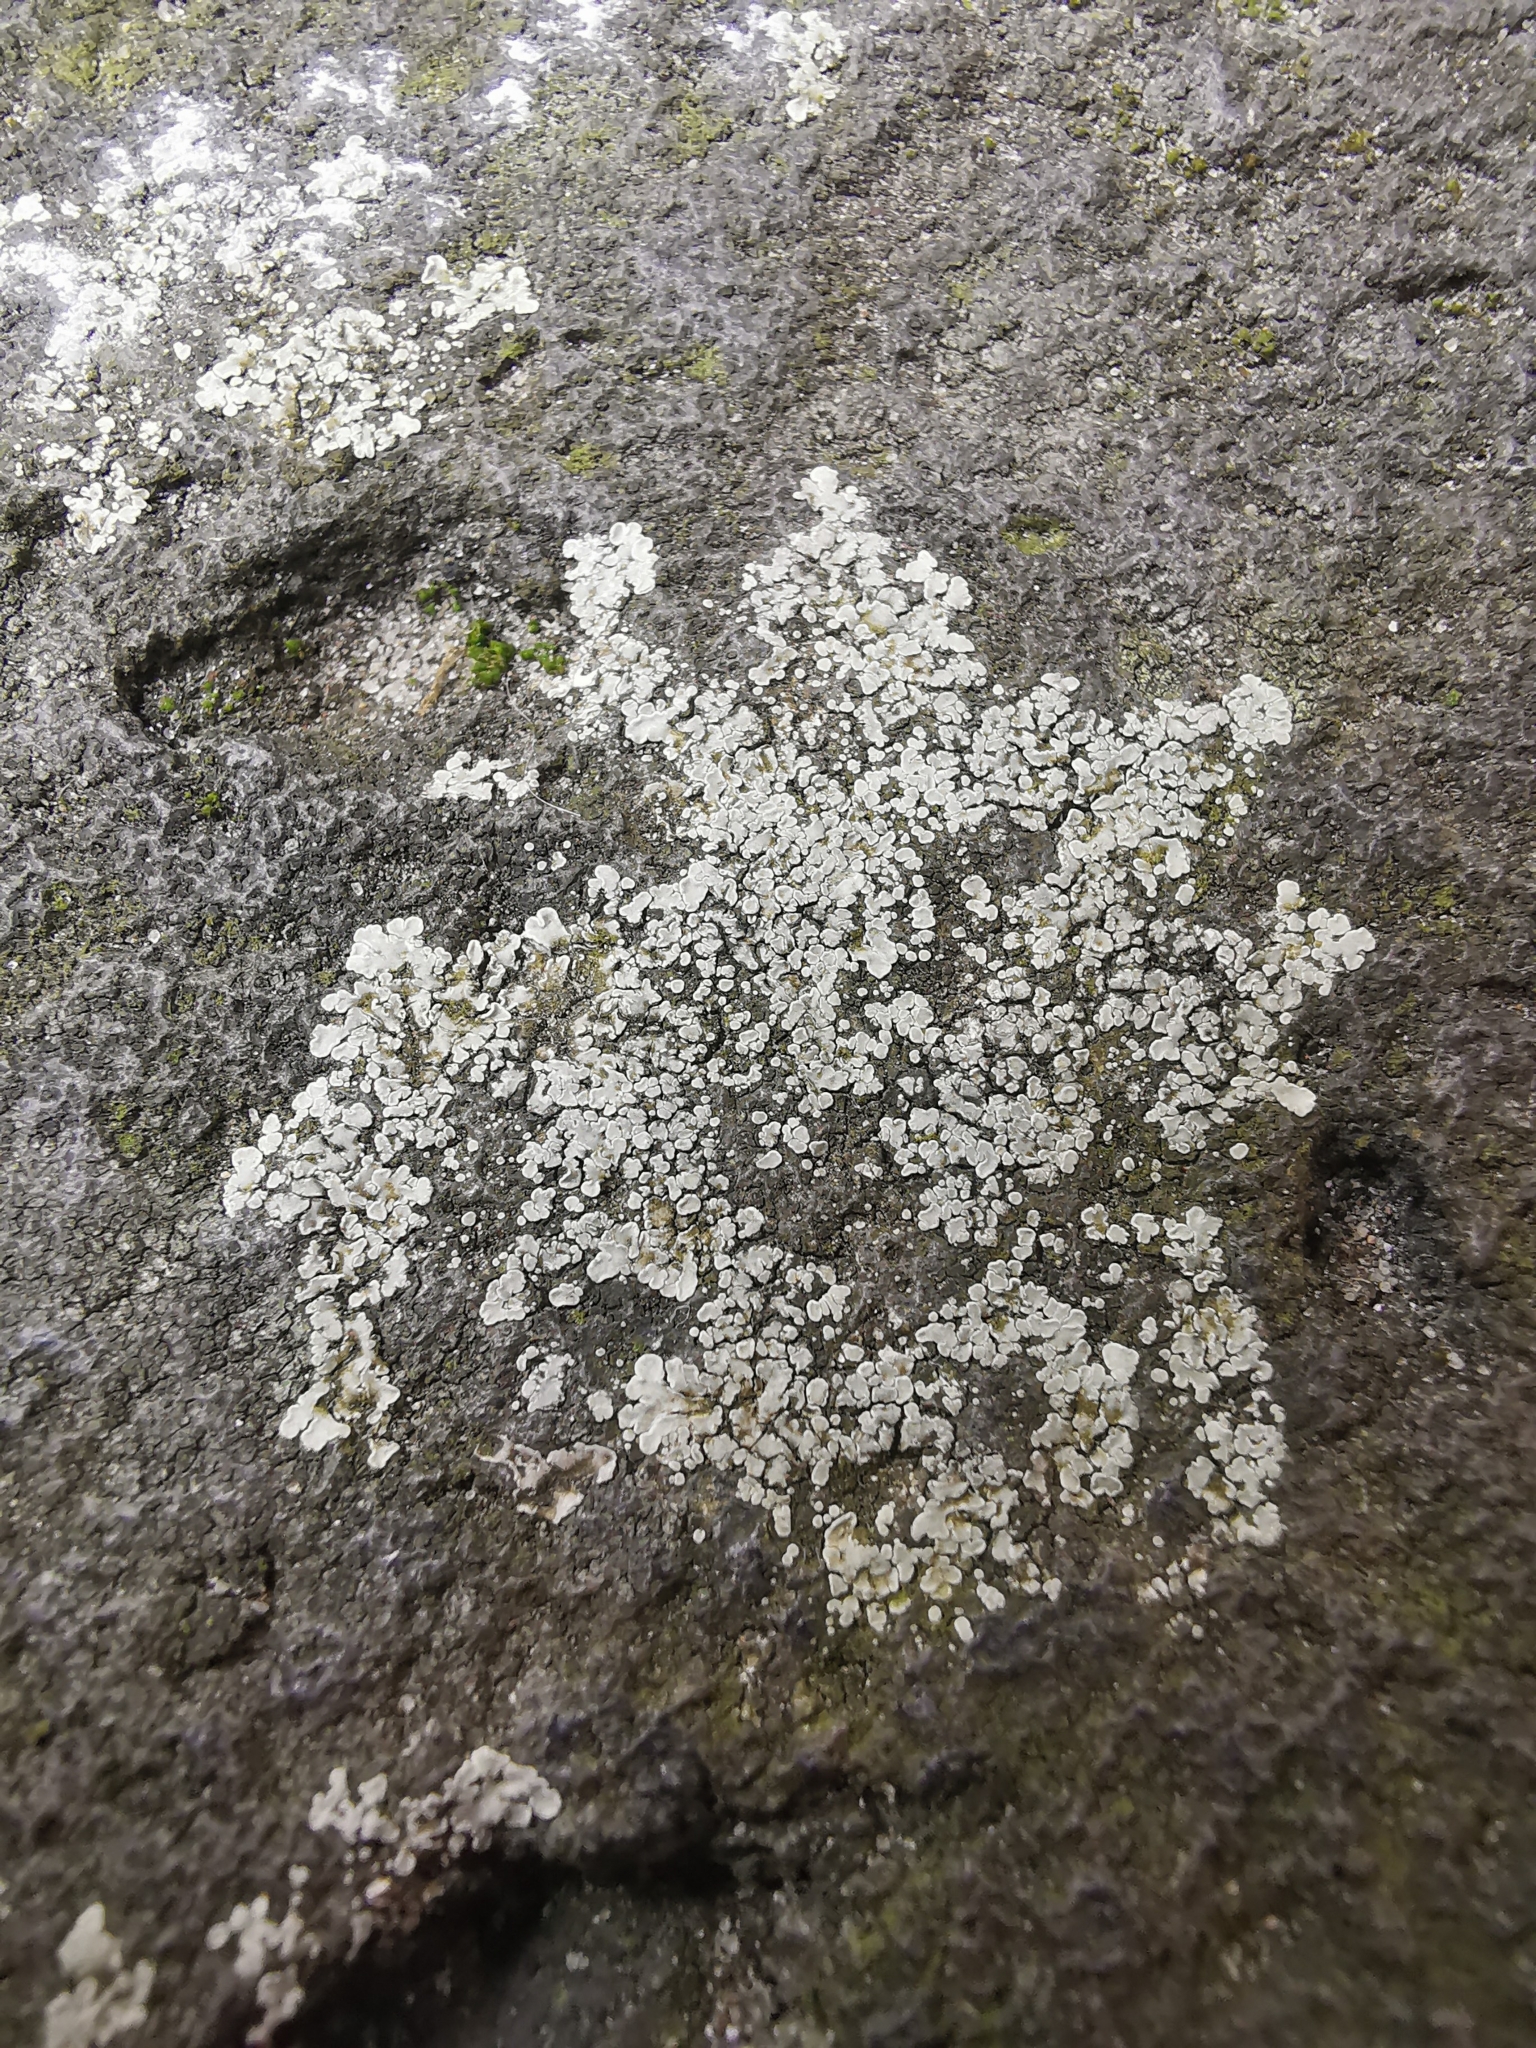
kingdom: Fungi
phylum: Ascomycota
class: Lecanoromycetes
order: Lecanorales
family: Lecanoraceae
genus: Protoparmeliopsis
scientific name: Protoparmeliopsis muralis
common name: Stonewall rim lichen
